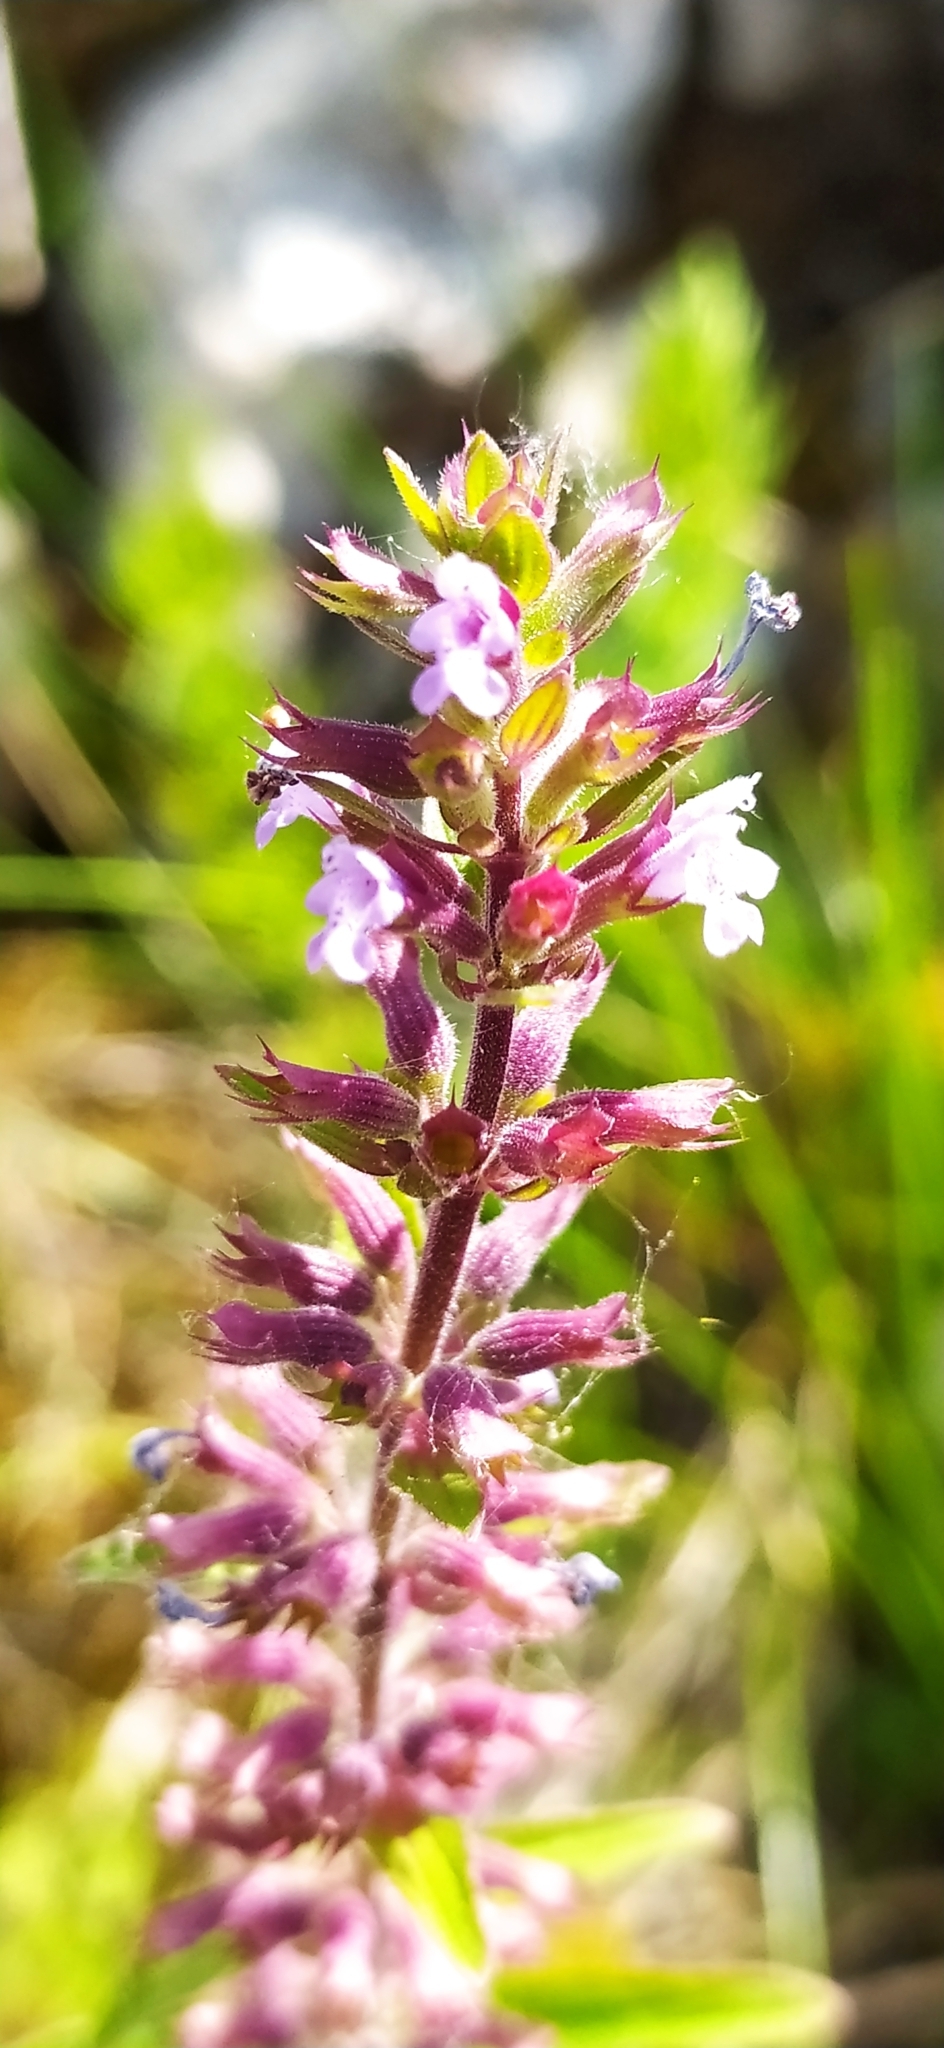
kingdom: Plantae
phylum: Tracheophyta
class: Magnoliopsida
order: Lamiales
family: Lamiaceae
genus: Dracocephalum
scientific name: Dracocephalum thymiflorum
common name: Thymeleaf dragonhead
